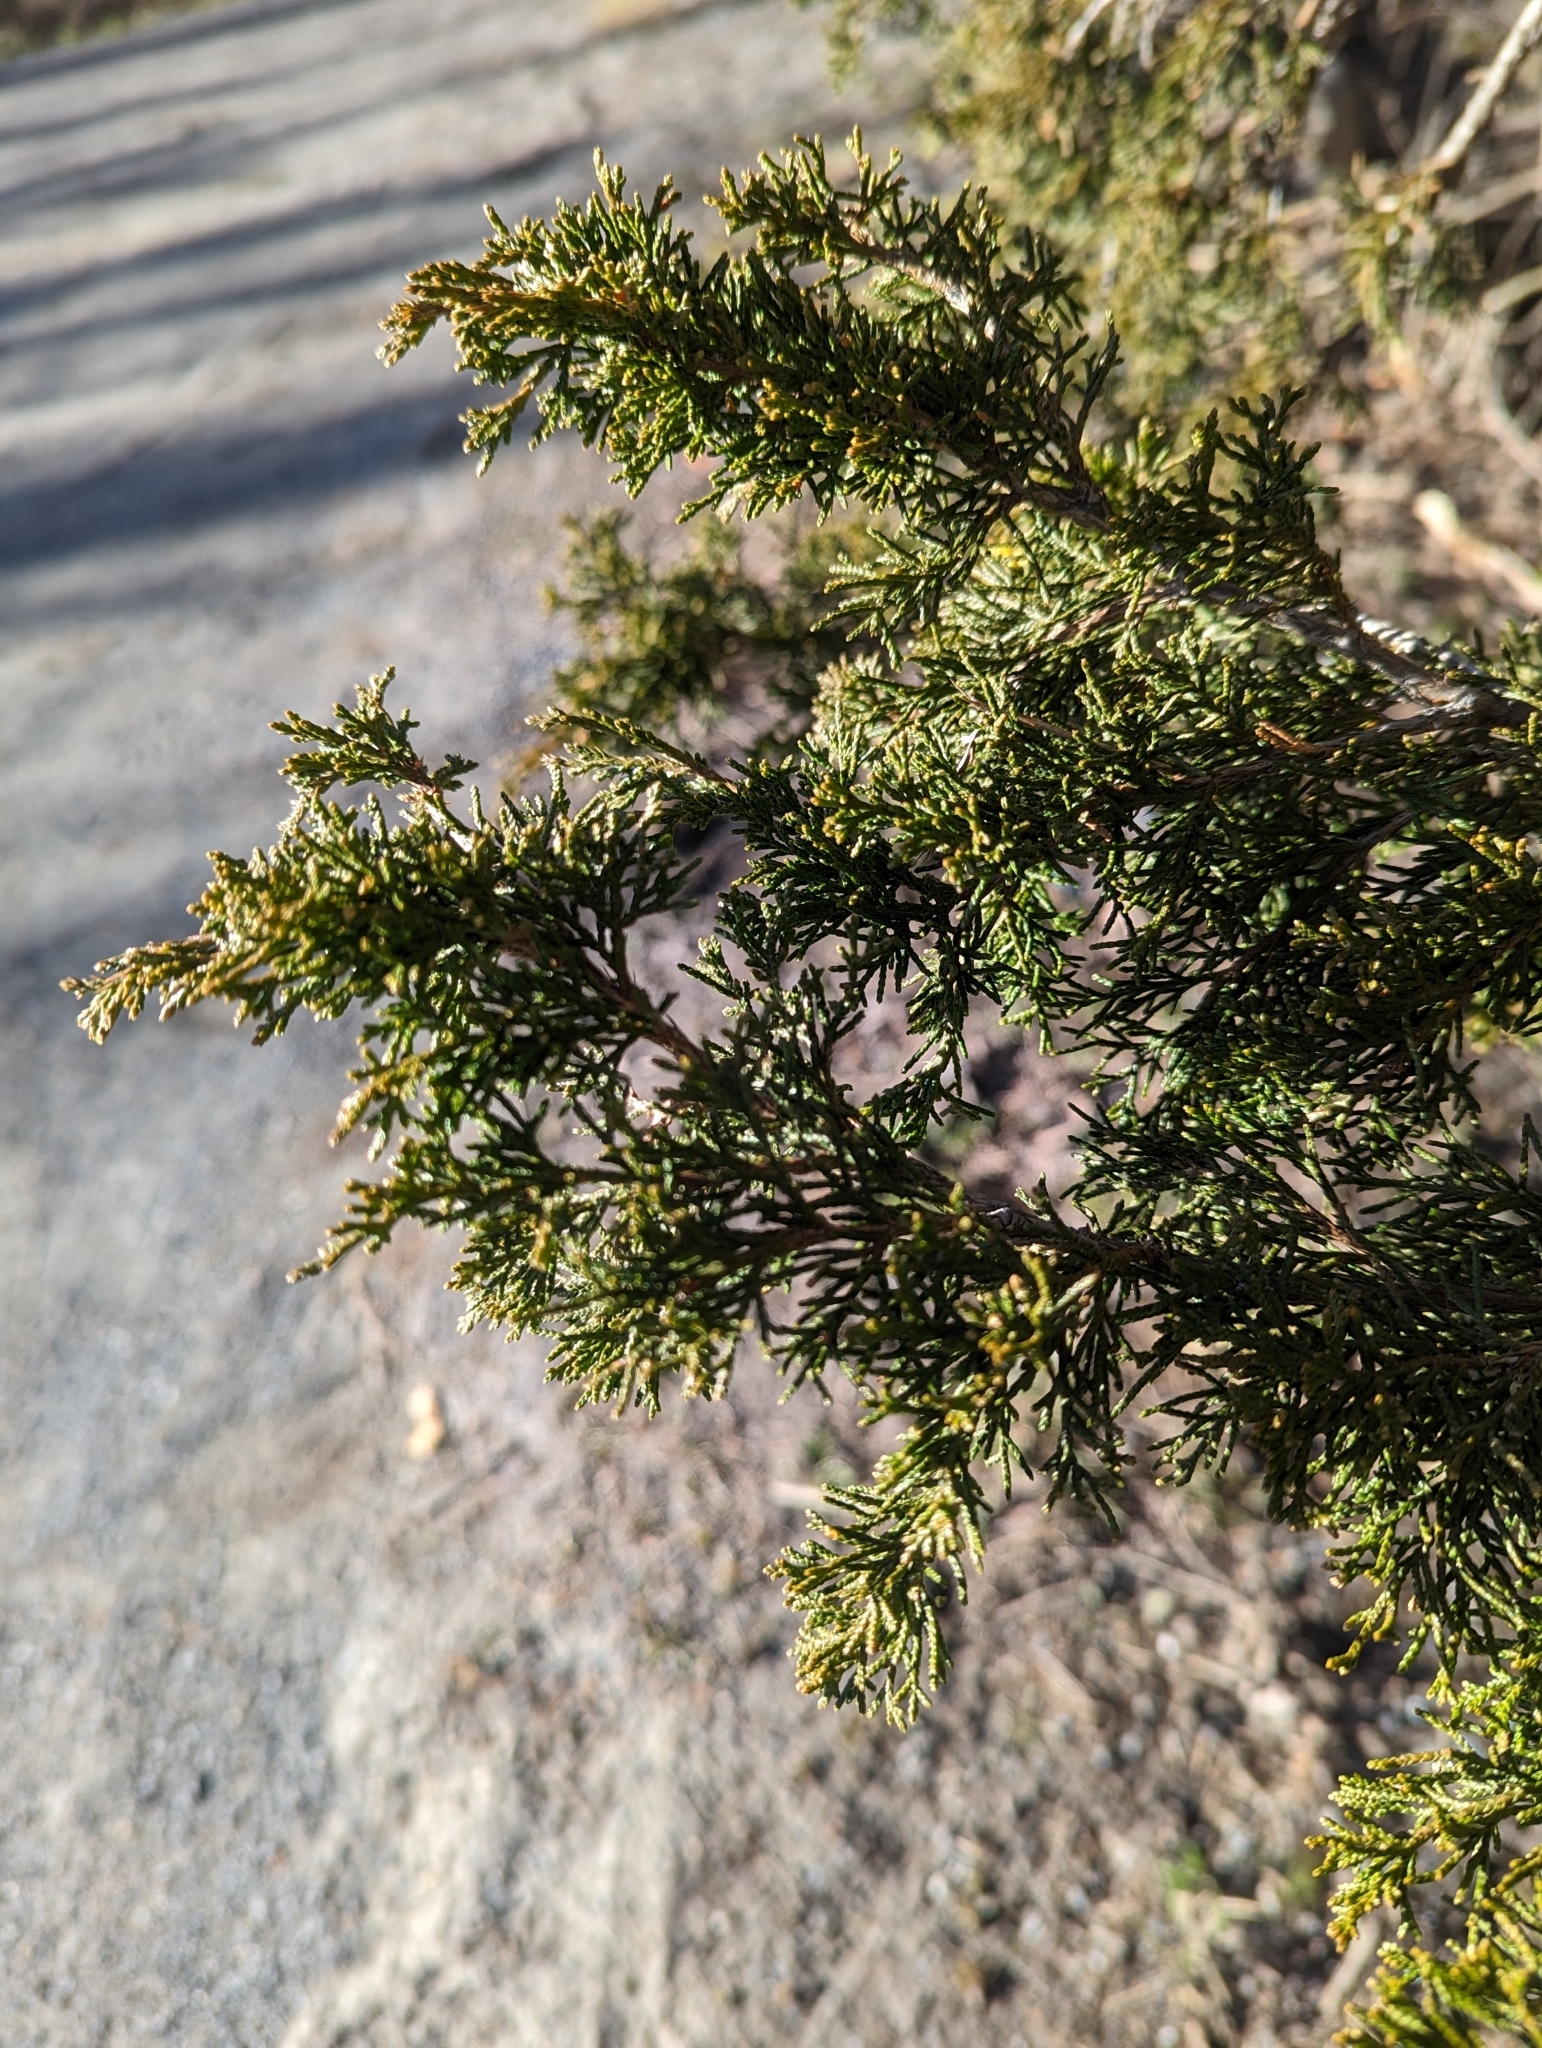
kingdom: Plantae
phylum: Tracheophyta
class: Pinopsida
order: Pinales
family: Cupressaceae
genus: Juniperus
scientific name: Juniperus virginiana
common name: Red juniper
